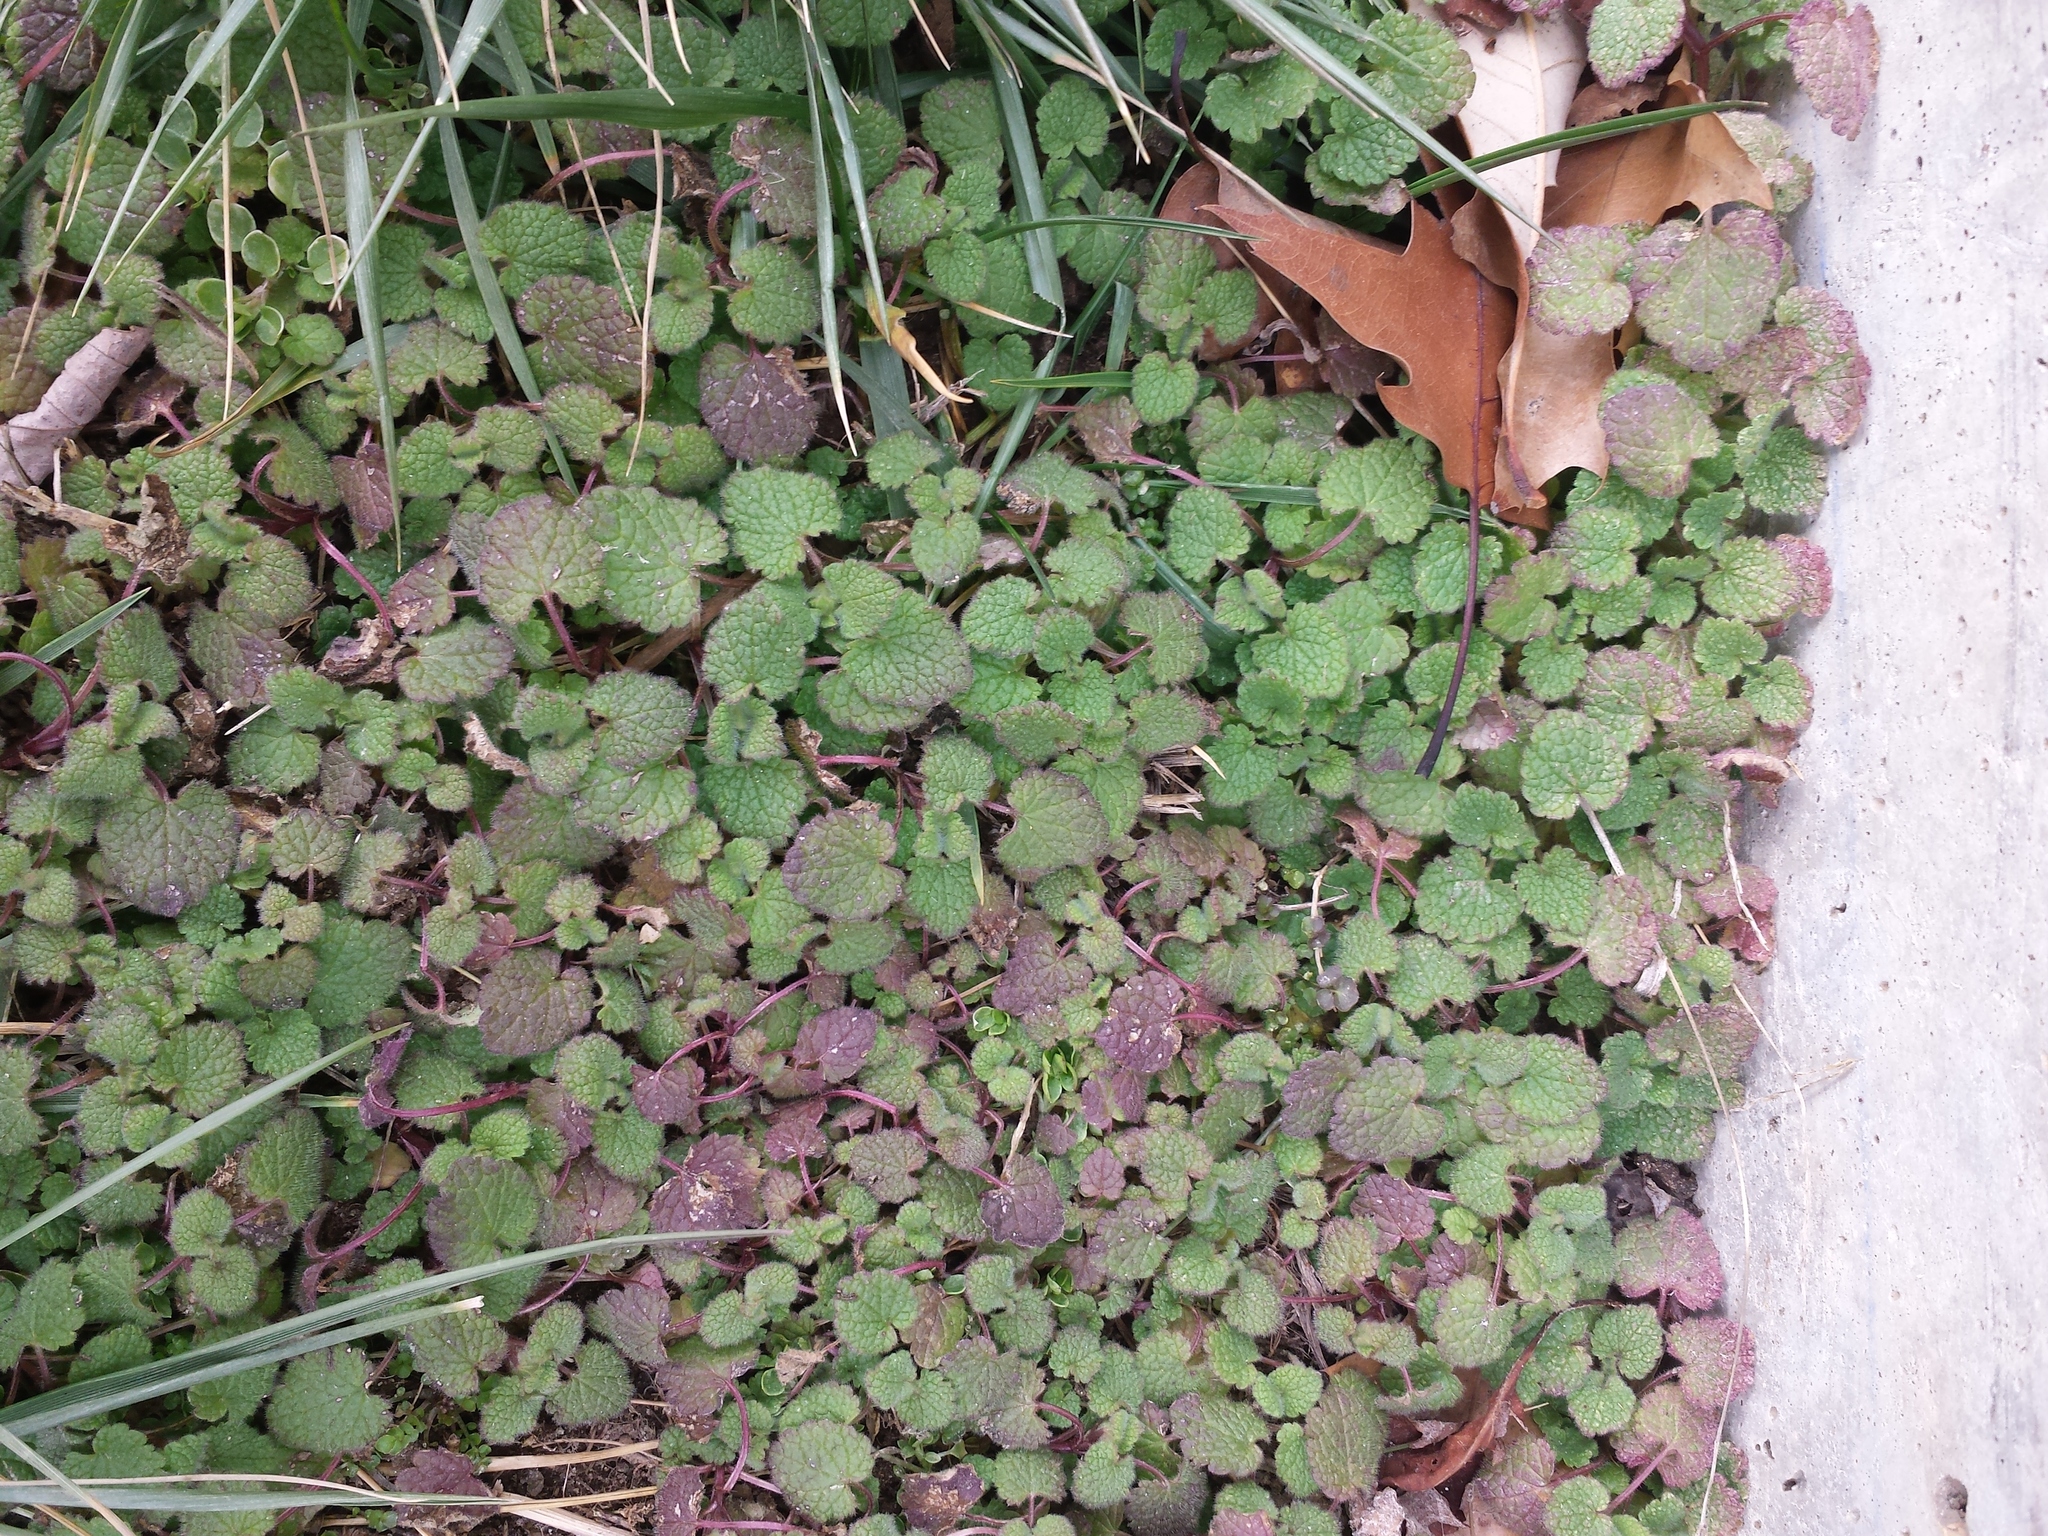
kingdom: Plantae
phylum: Tracheophyta
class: Magnoliopsida
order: Lamiales
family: Lamiaceae
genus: Lamium
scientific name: Lamium purpureum
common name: Red dead-nettle
